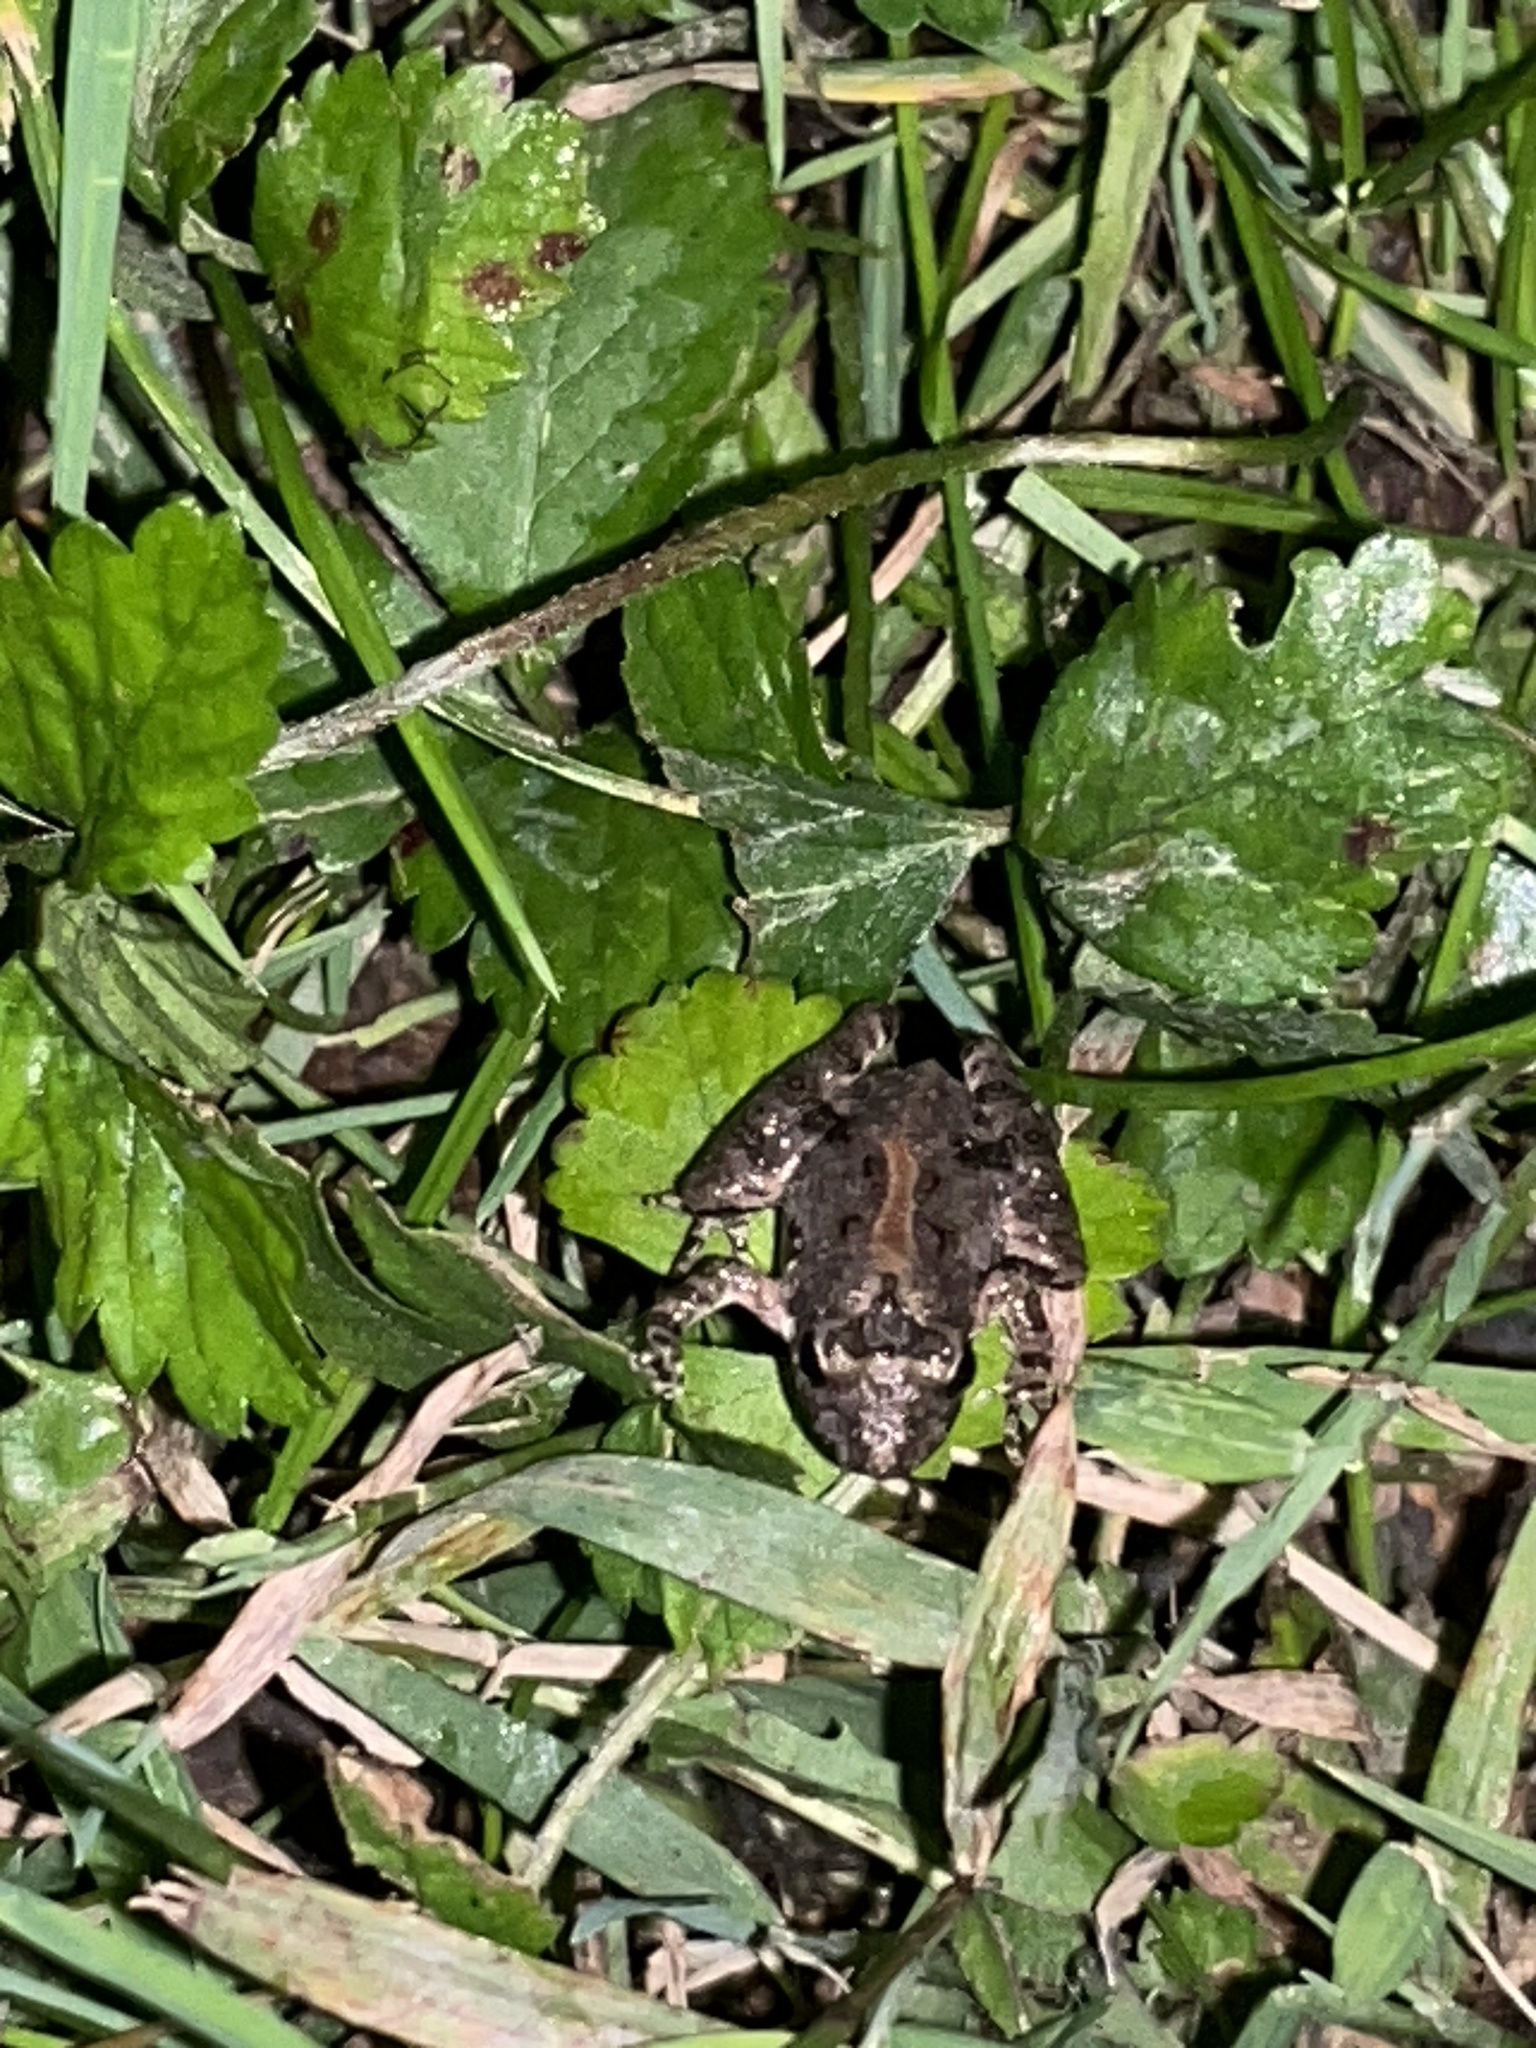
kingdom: Animalia
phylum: Chordata
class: Amphibia
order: Anura
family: Hylidae
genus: Acris
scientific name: Acris crepitans
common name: Northern cricket frog
